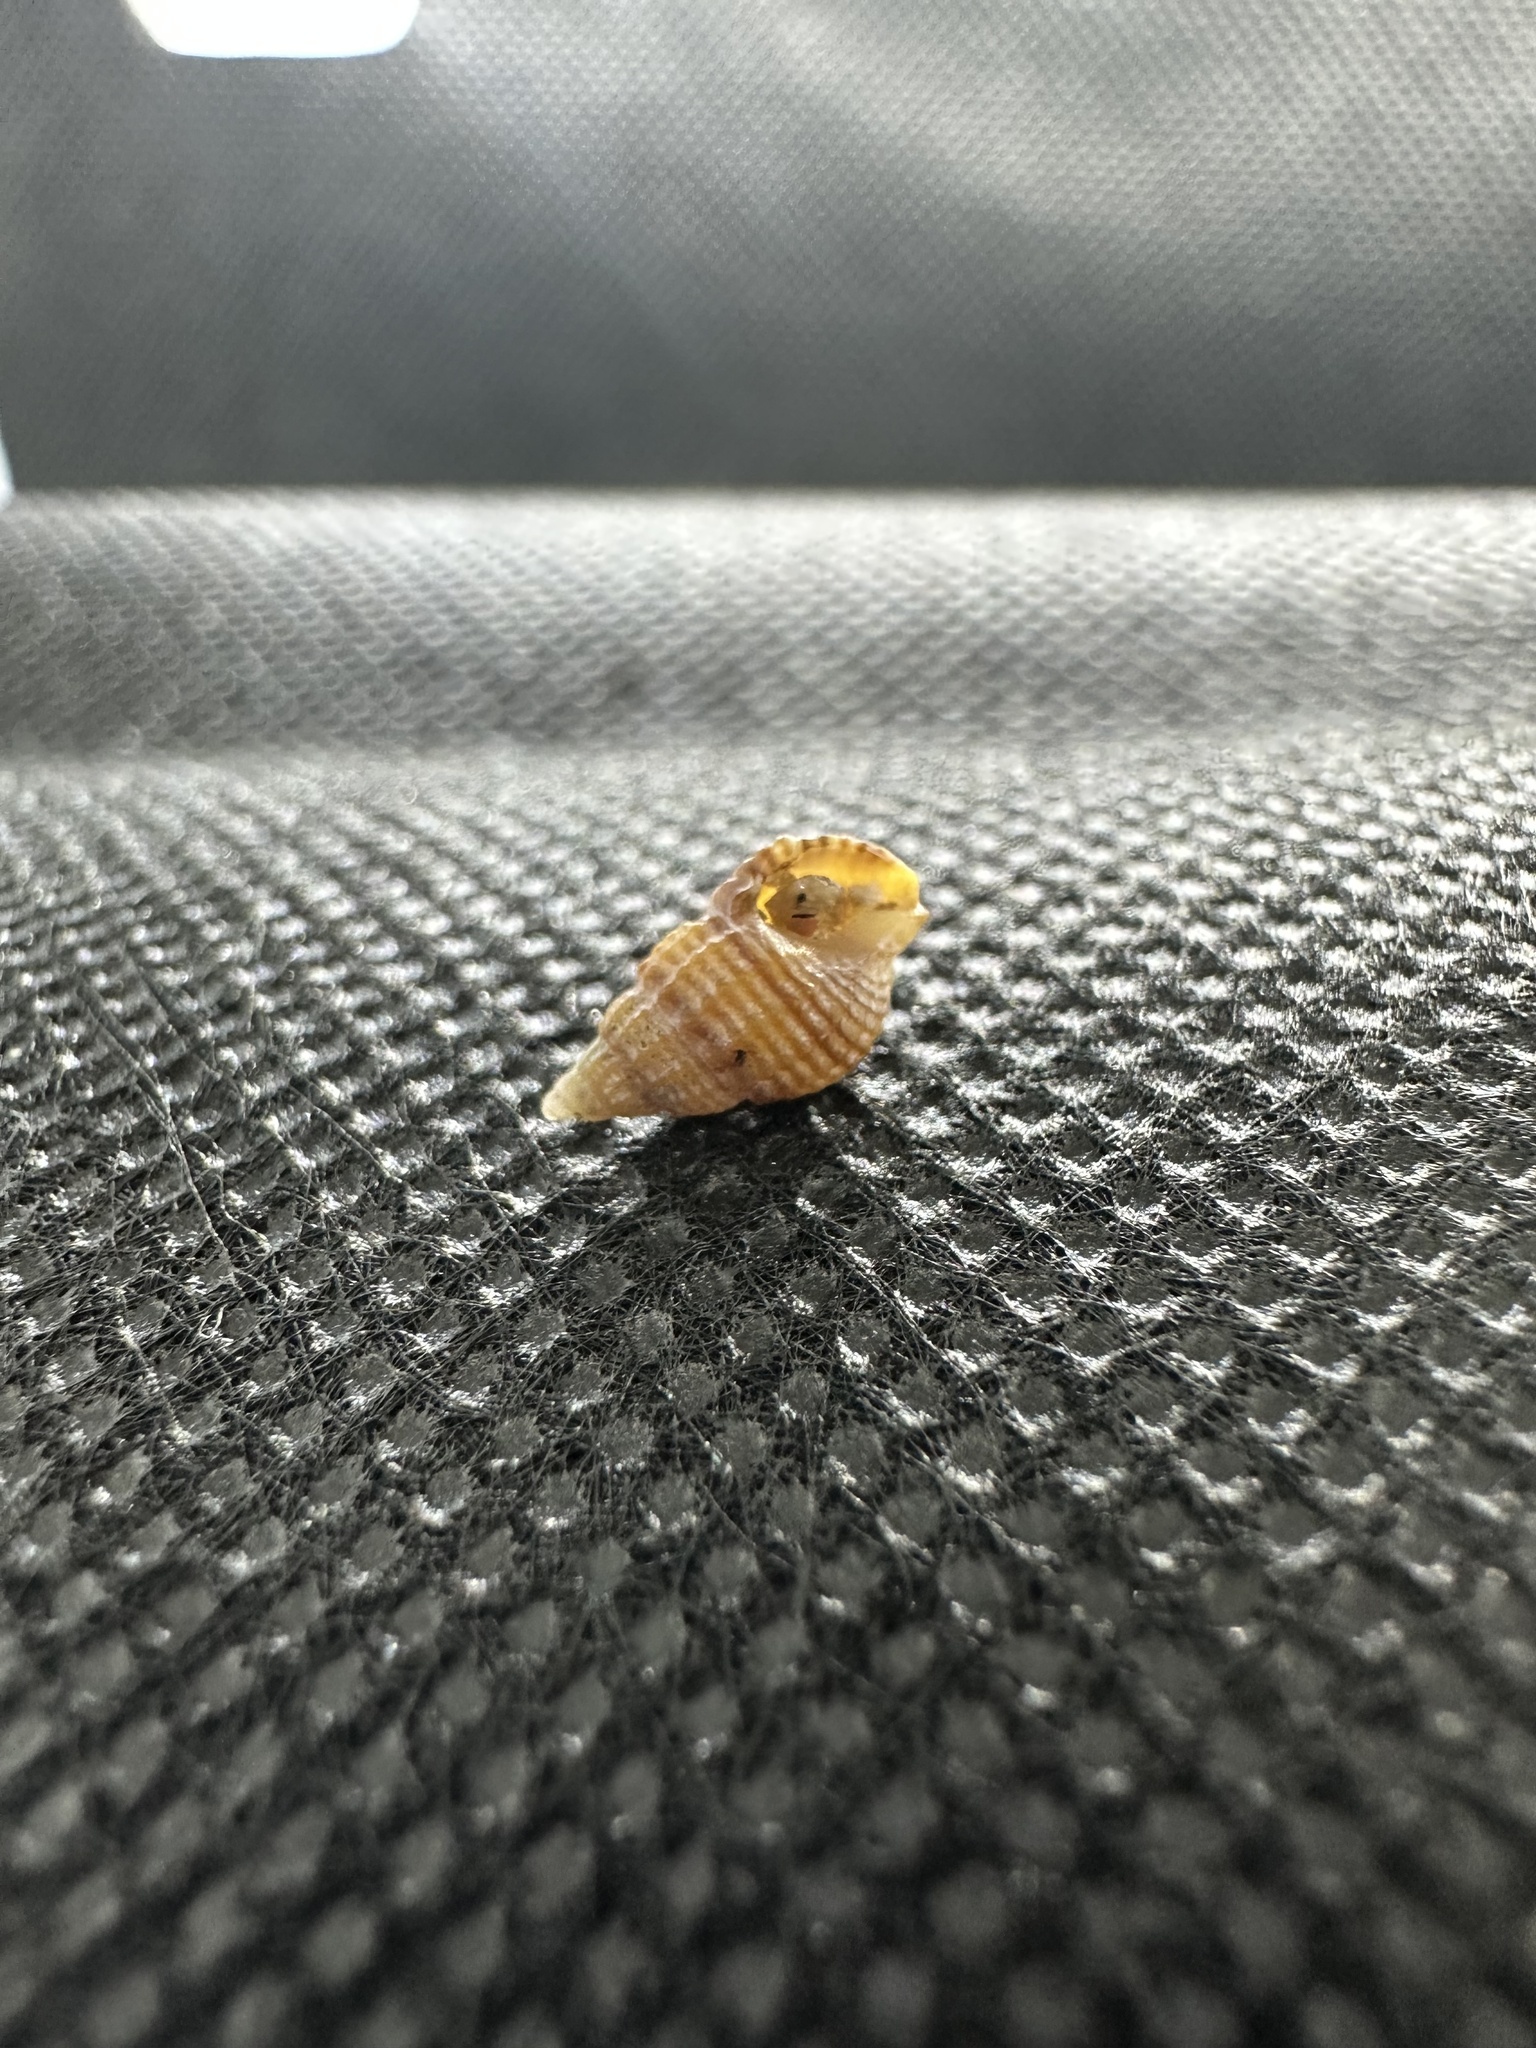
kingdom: Animalia
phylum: Mollusca
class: Gastropoda
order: Neogastropoda
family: Nassariidae
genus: Ilyanassa
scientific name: Ilyanassa trivittata
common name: Three-line mudsnail
